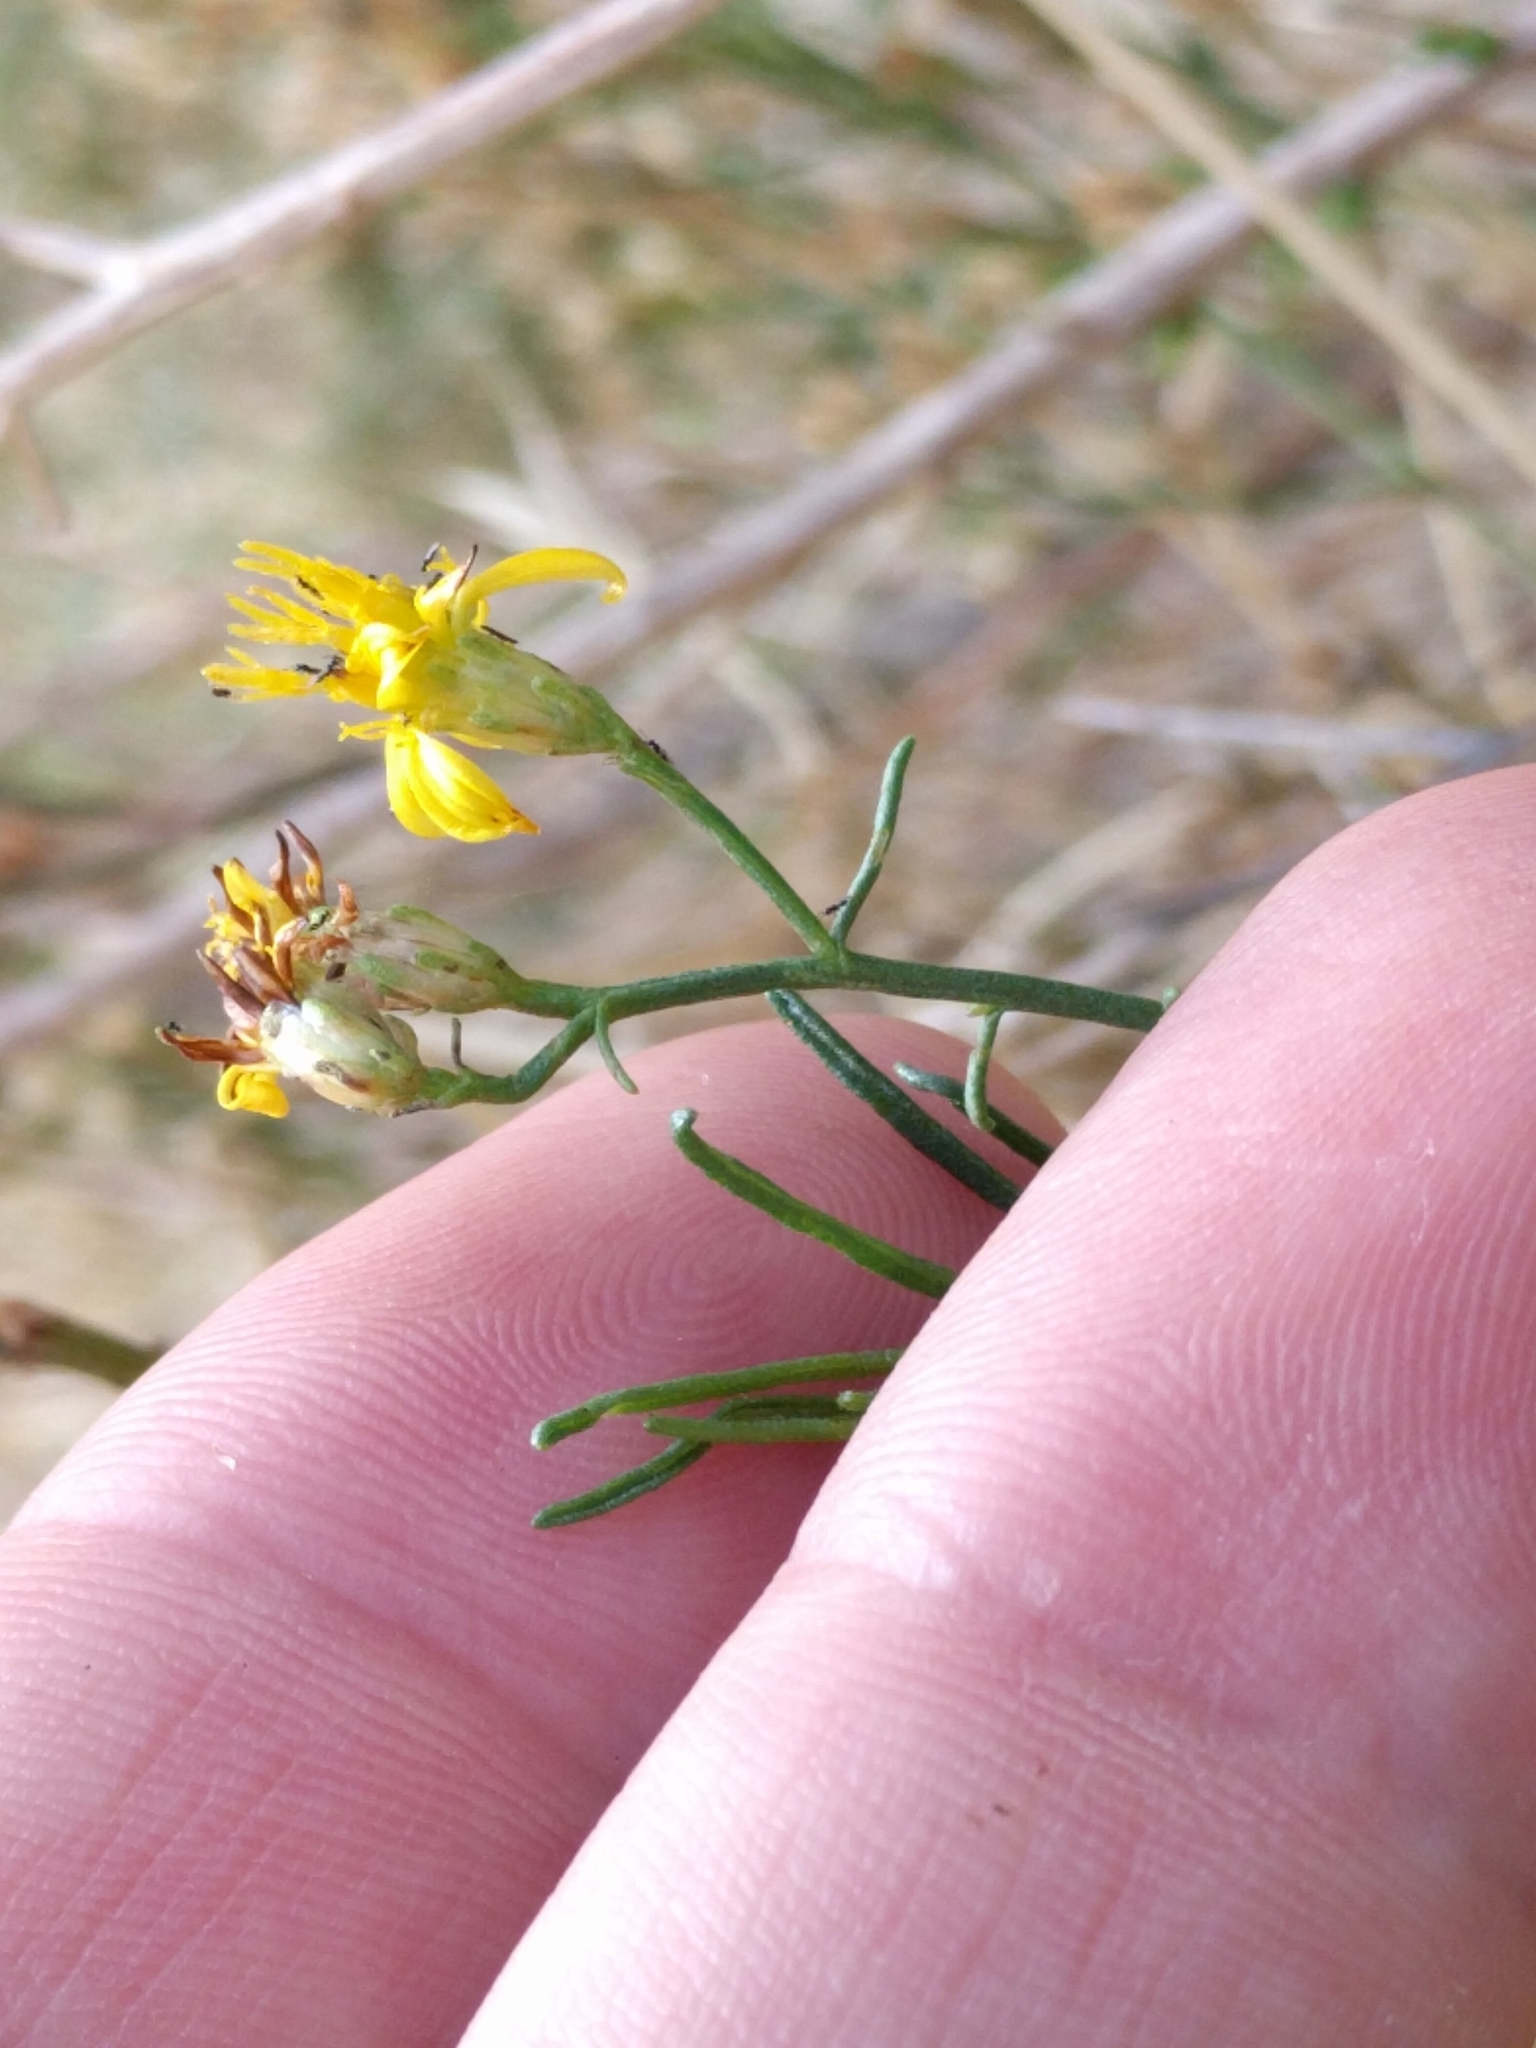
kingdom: Plantae
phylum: Tracheophyta
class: Magnoliopsida
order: Asterales
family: Asteraceae
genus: Gutierrezia
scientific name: Gutierrezia californica
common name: California matchweed
